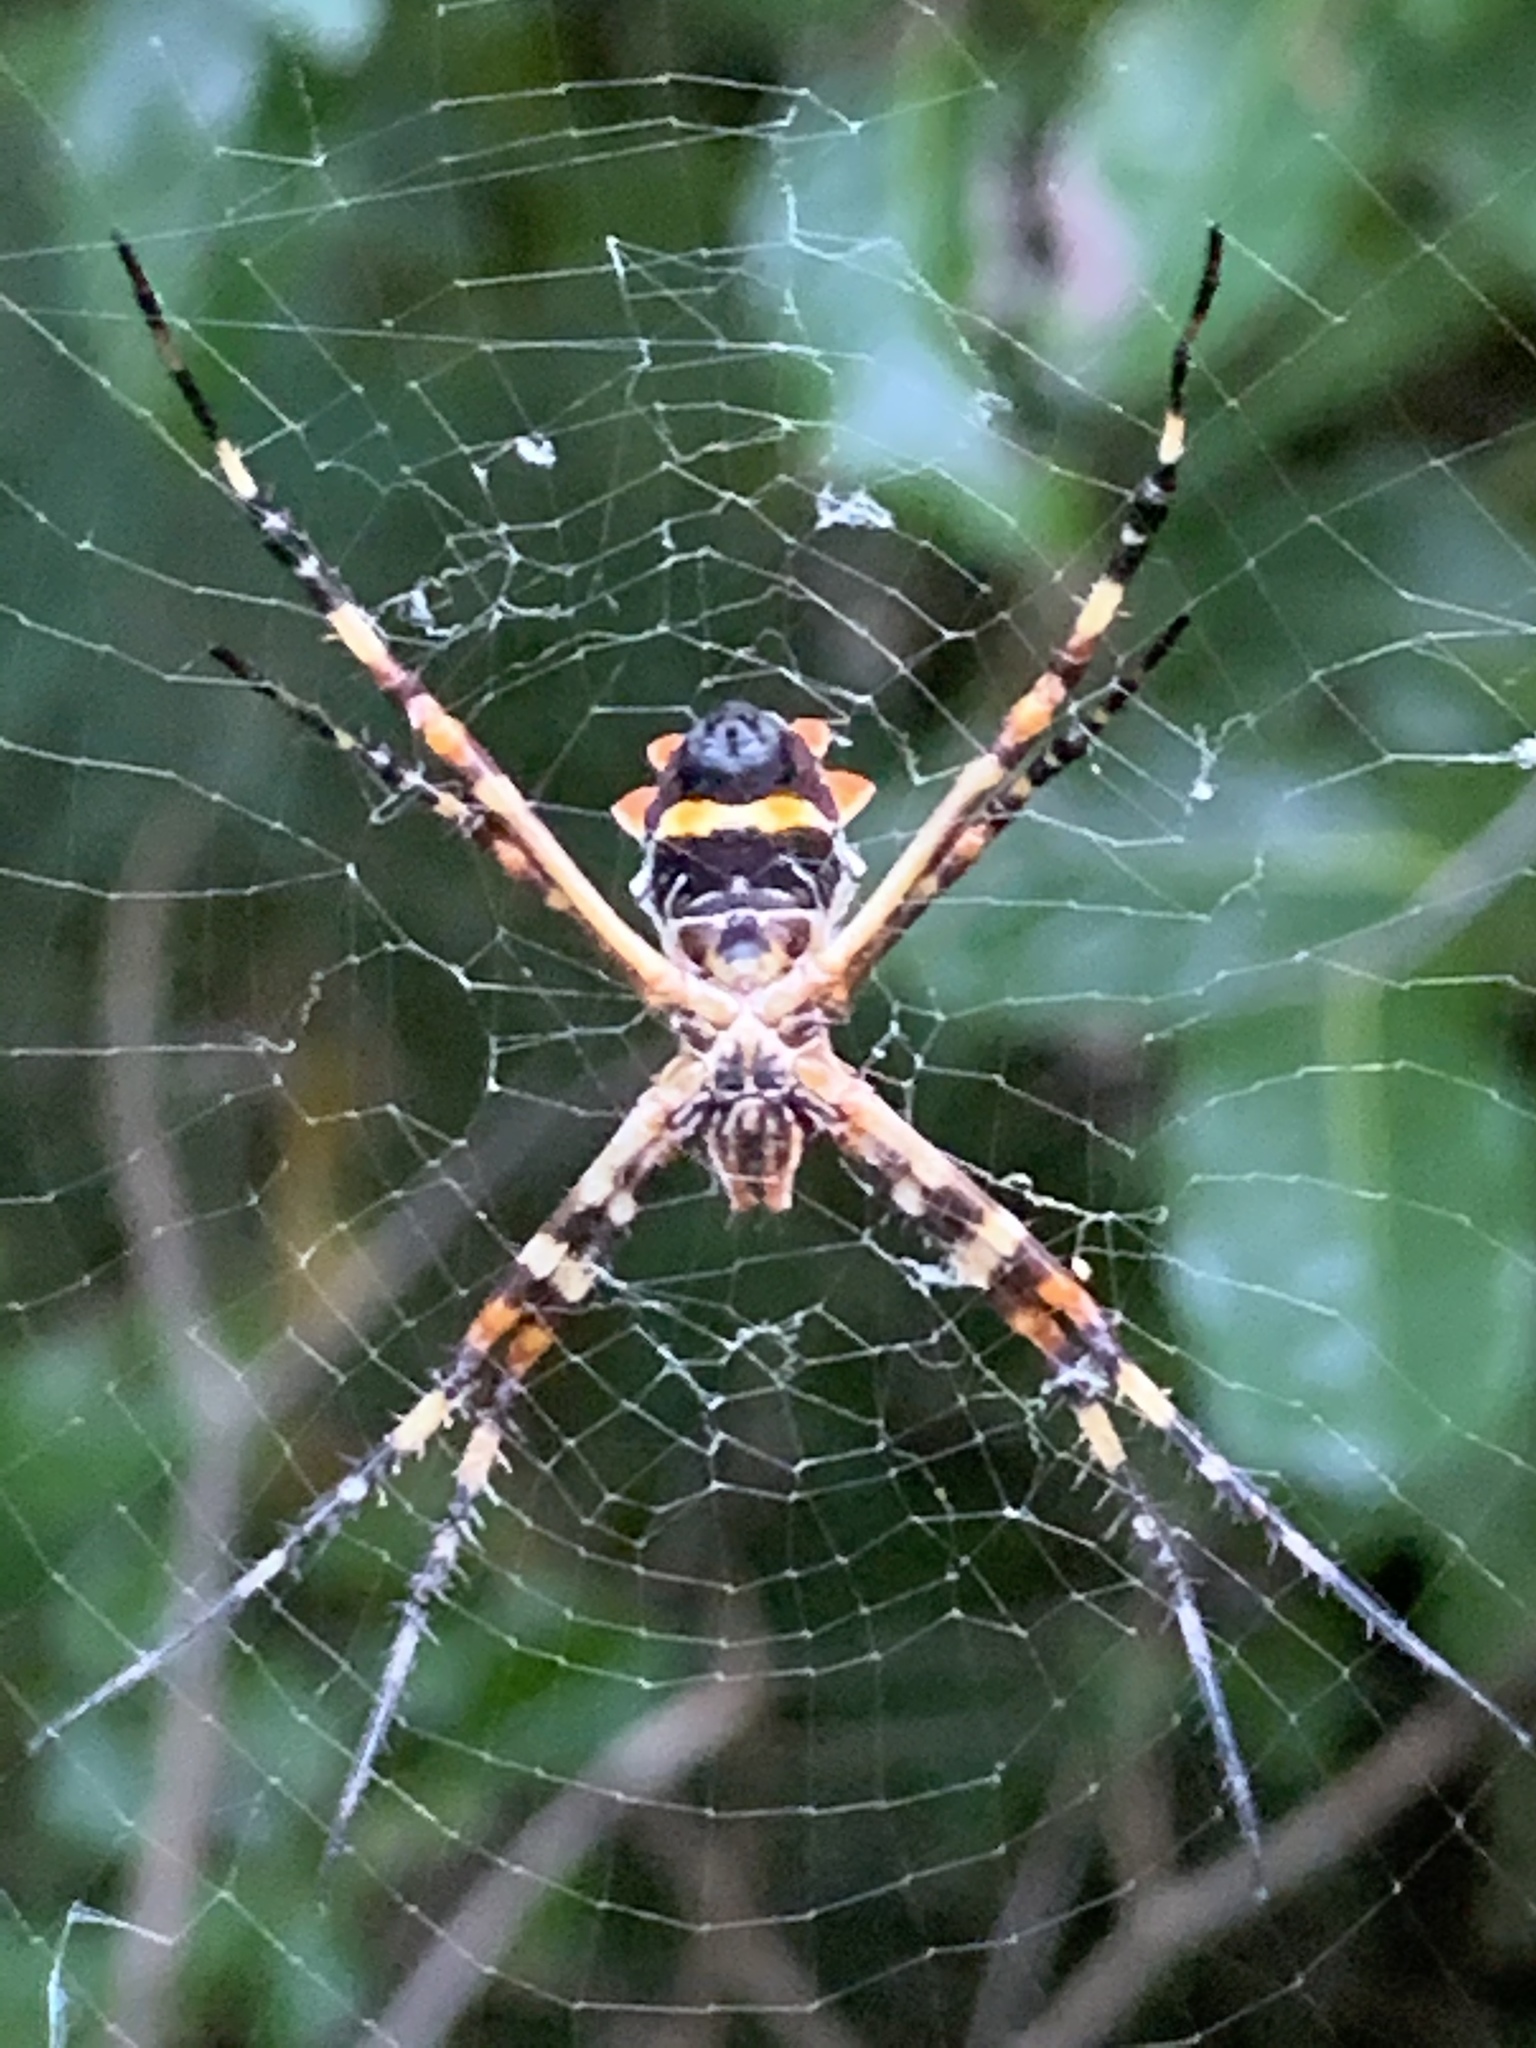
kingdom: Animalia
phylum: Arthropoda
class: Arachnida
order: Araneae
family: Araneidae
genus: Argiope
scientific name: Argiope argentata
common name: Orb weavers
